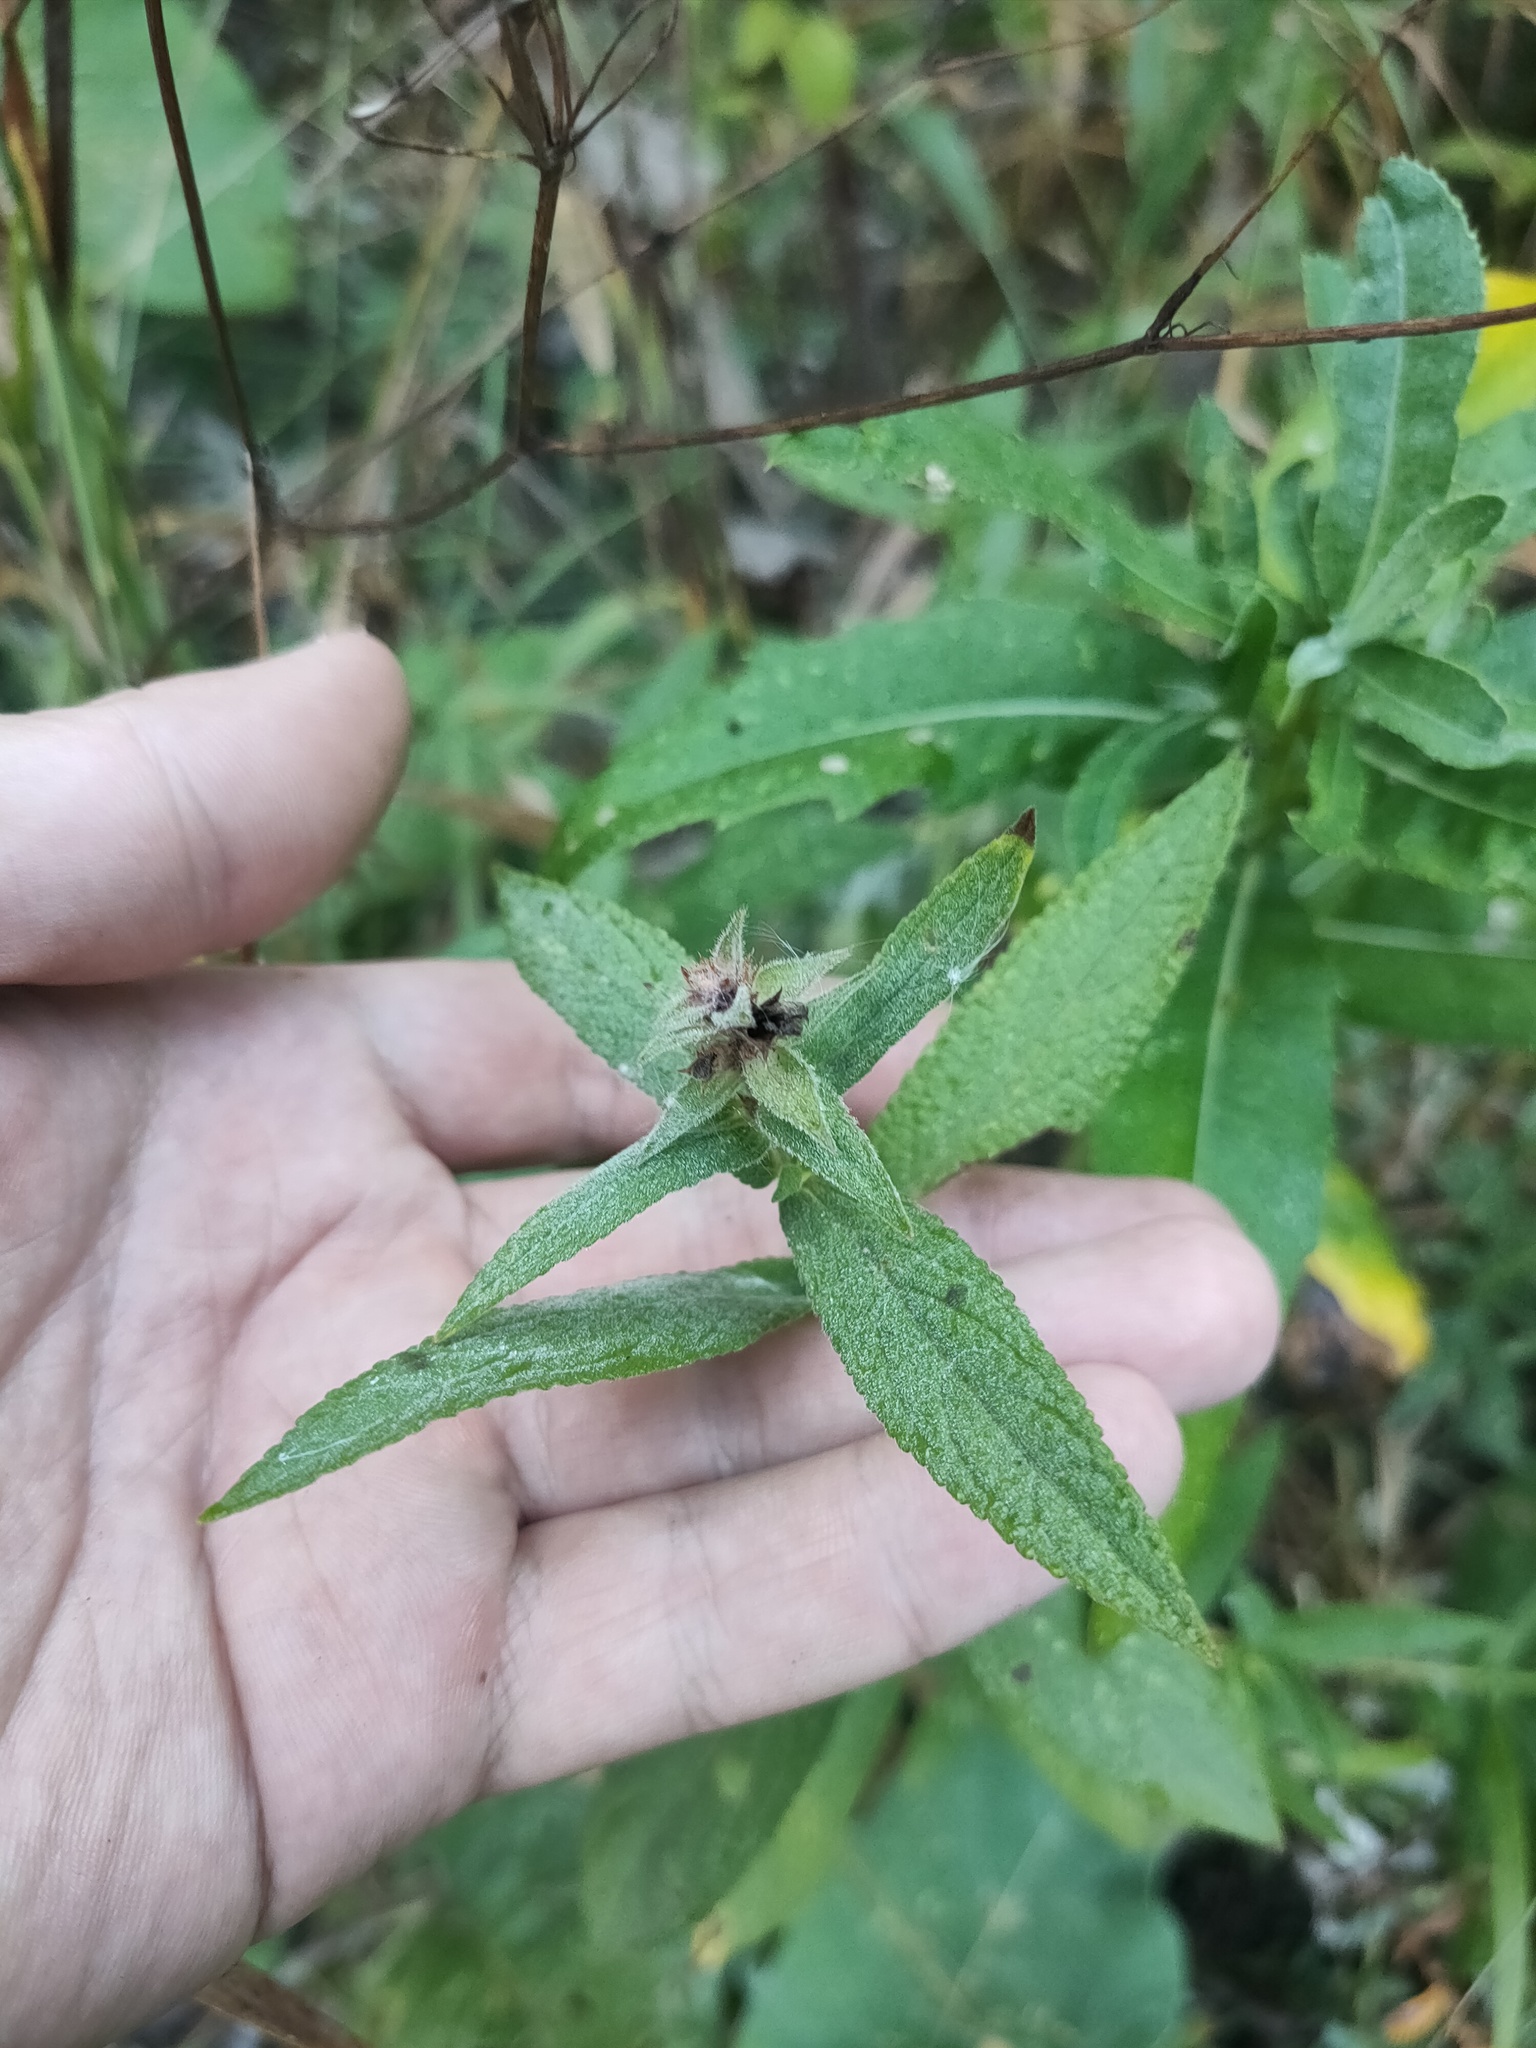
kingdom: Plantae
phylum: Tracheophyta
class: Magnoliopsida
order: Lamiales
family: Lamiaceae
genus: Stachys
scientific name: Stachys palustris
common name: Marsh woundwort
